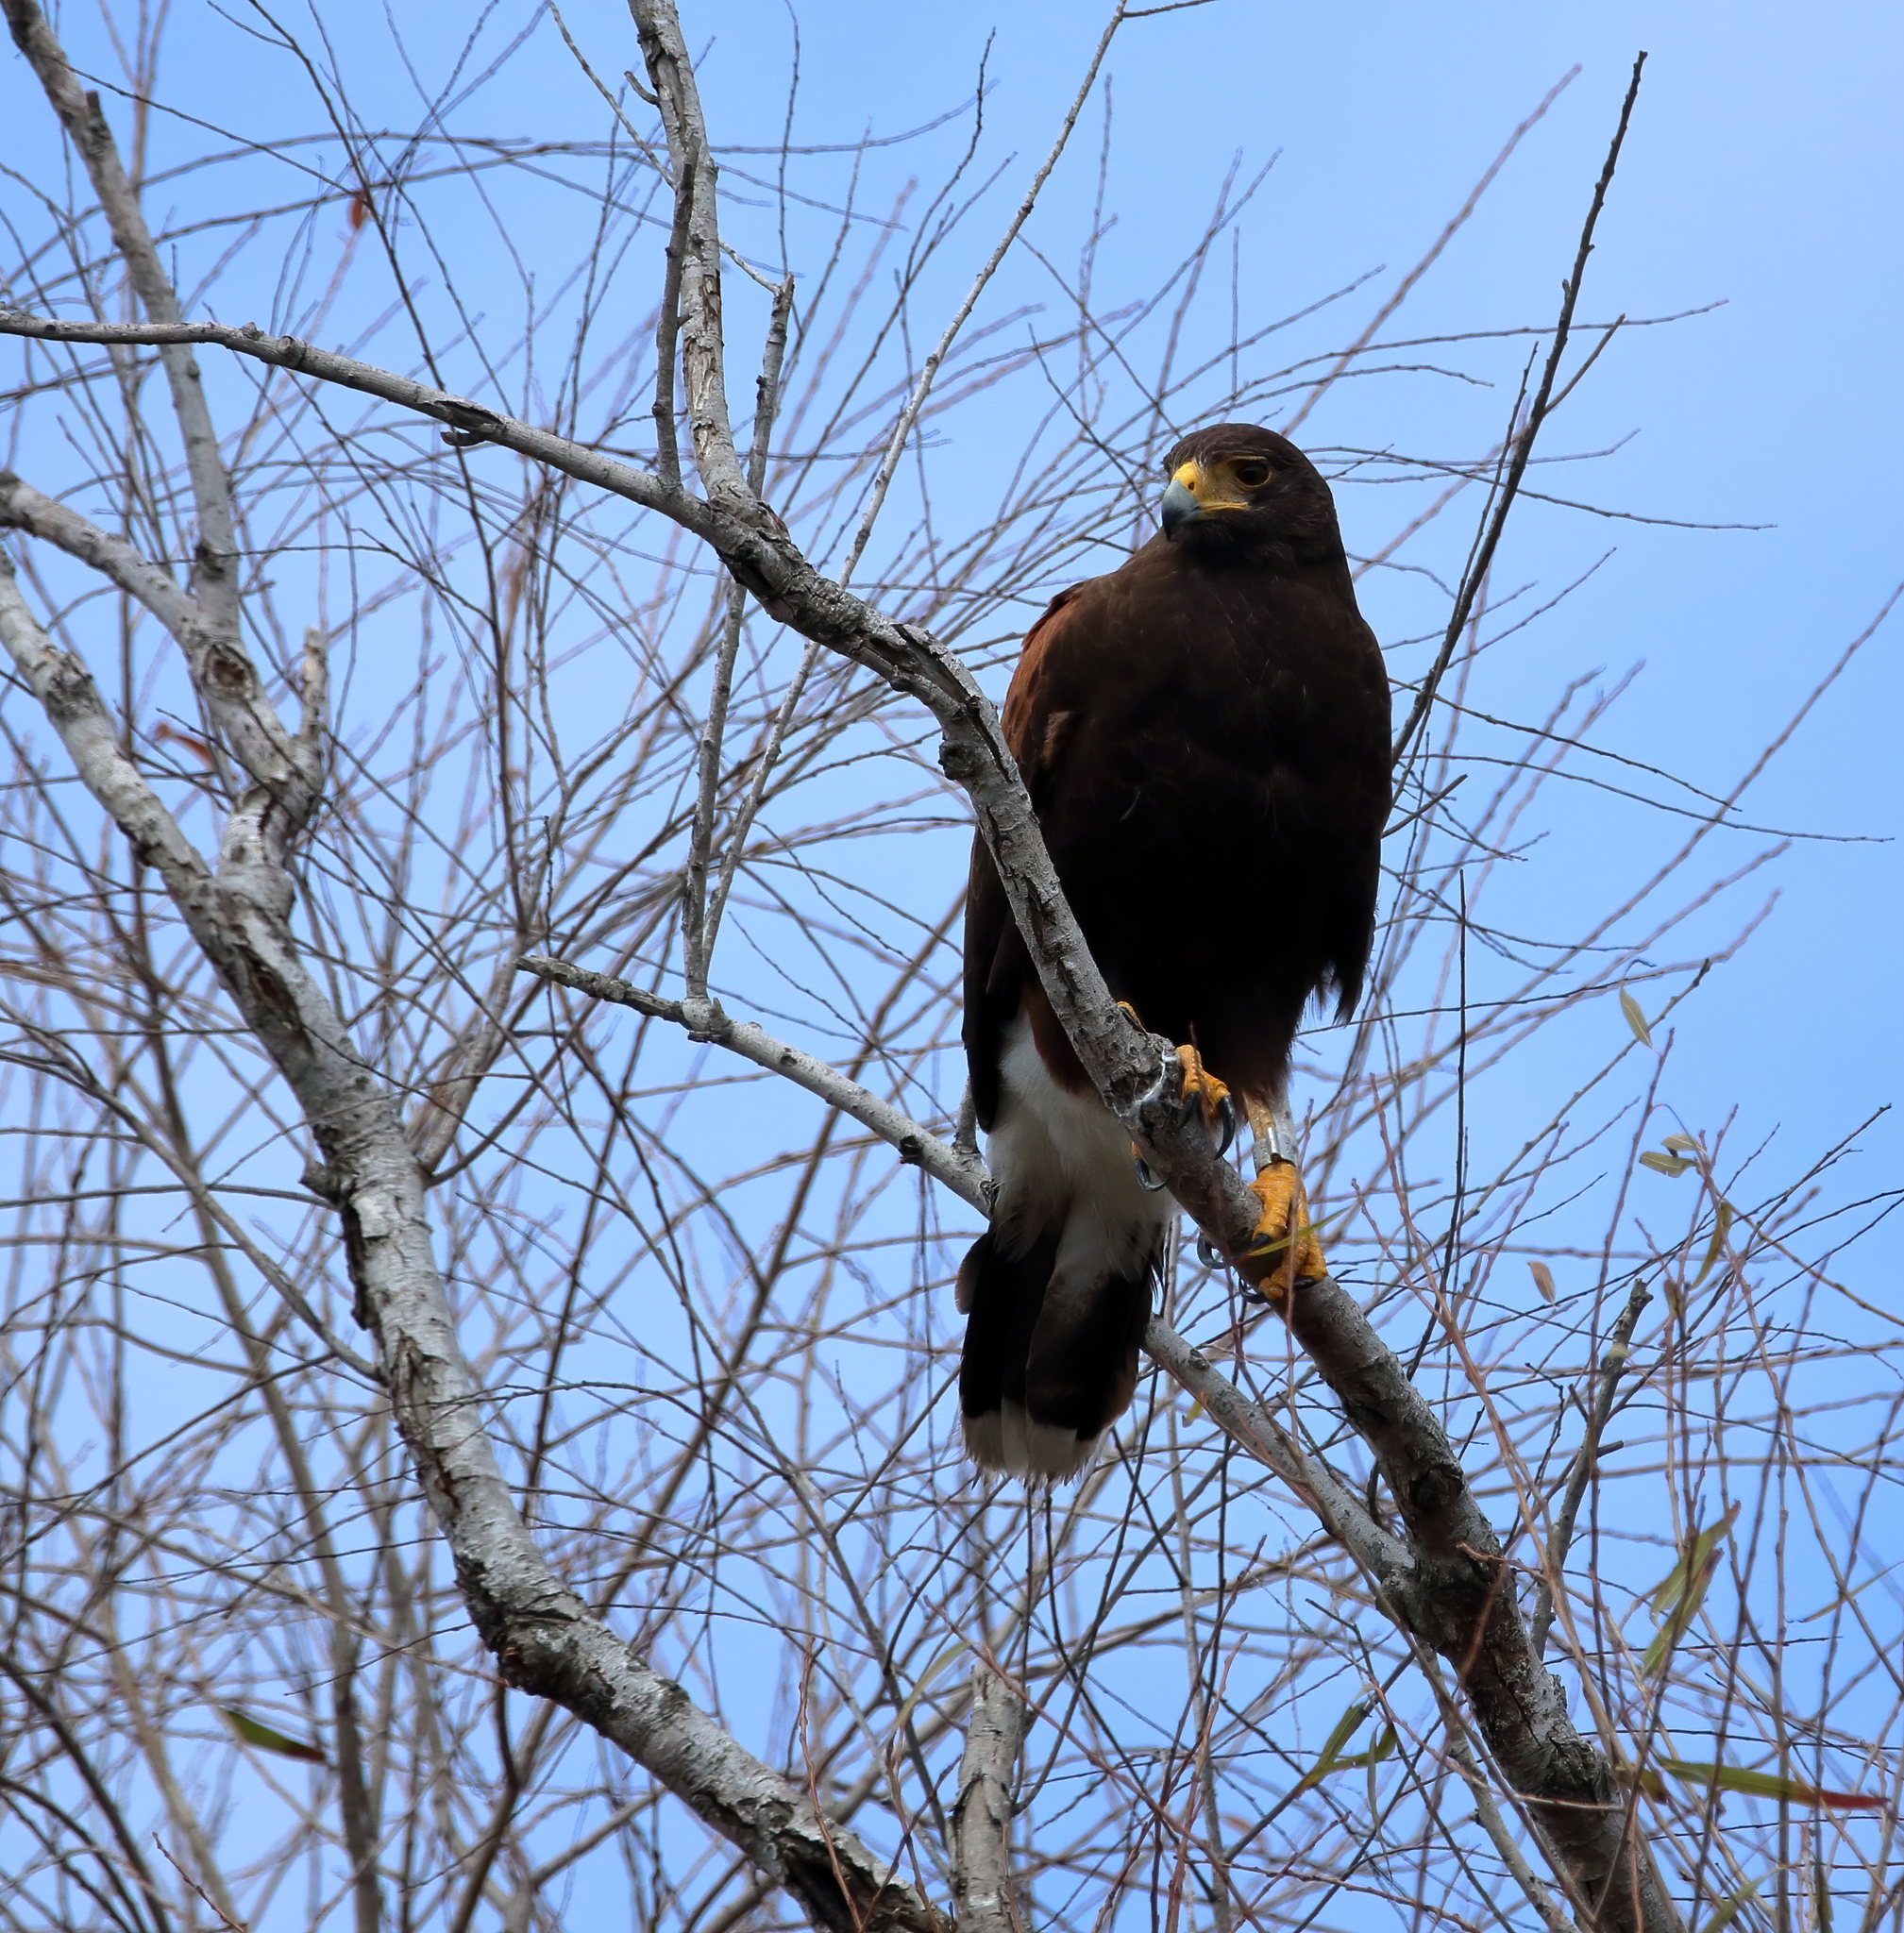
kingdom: Animalia
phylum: Chordata
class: Aves
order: Accipitriformes
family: Accipitridae
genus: Parabuteo
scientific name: Parabuteo unicinctus
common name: Harris's hawk
